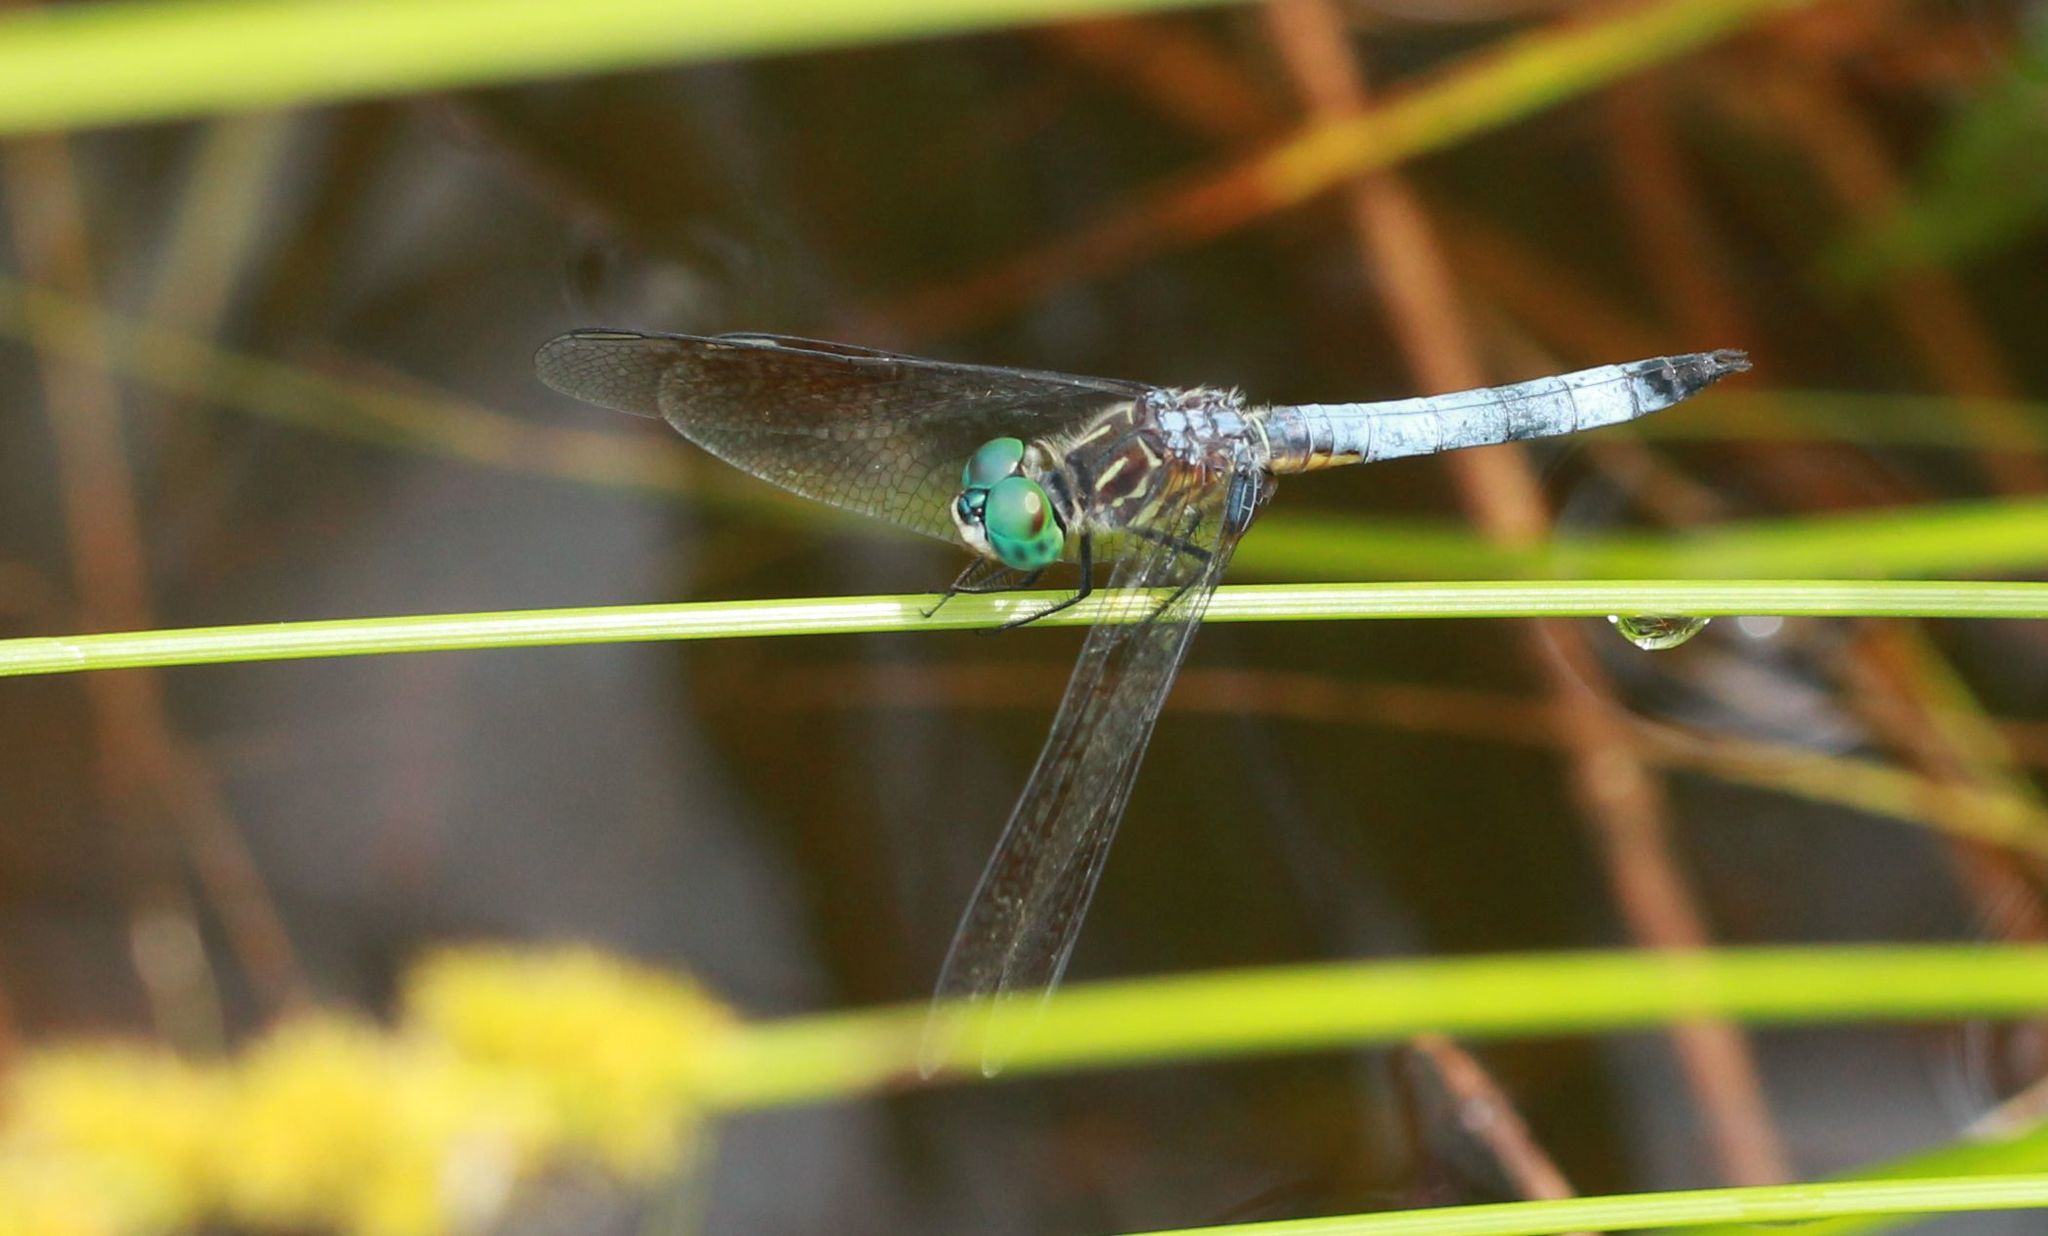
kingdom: Animalia
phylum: Arthropoda
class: Insecta
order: Odonata
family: Libellulidae
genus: Pachydiplax
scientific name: Pachydiplax longipennis
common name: Blue dasher
